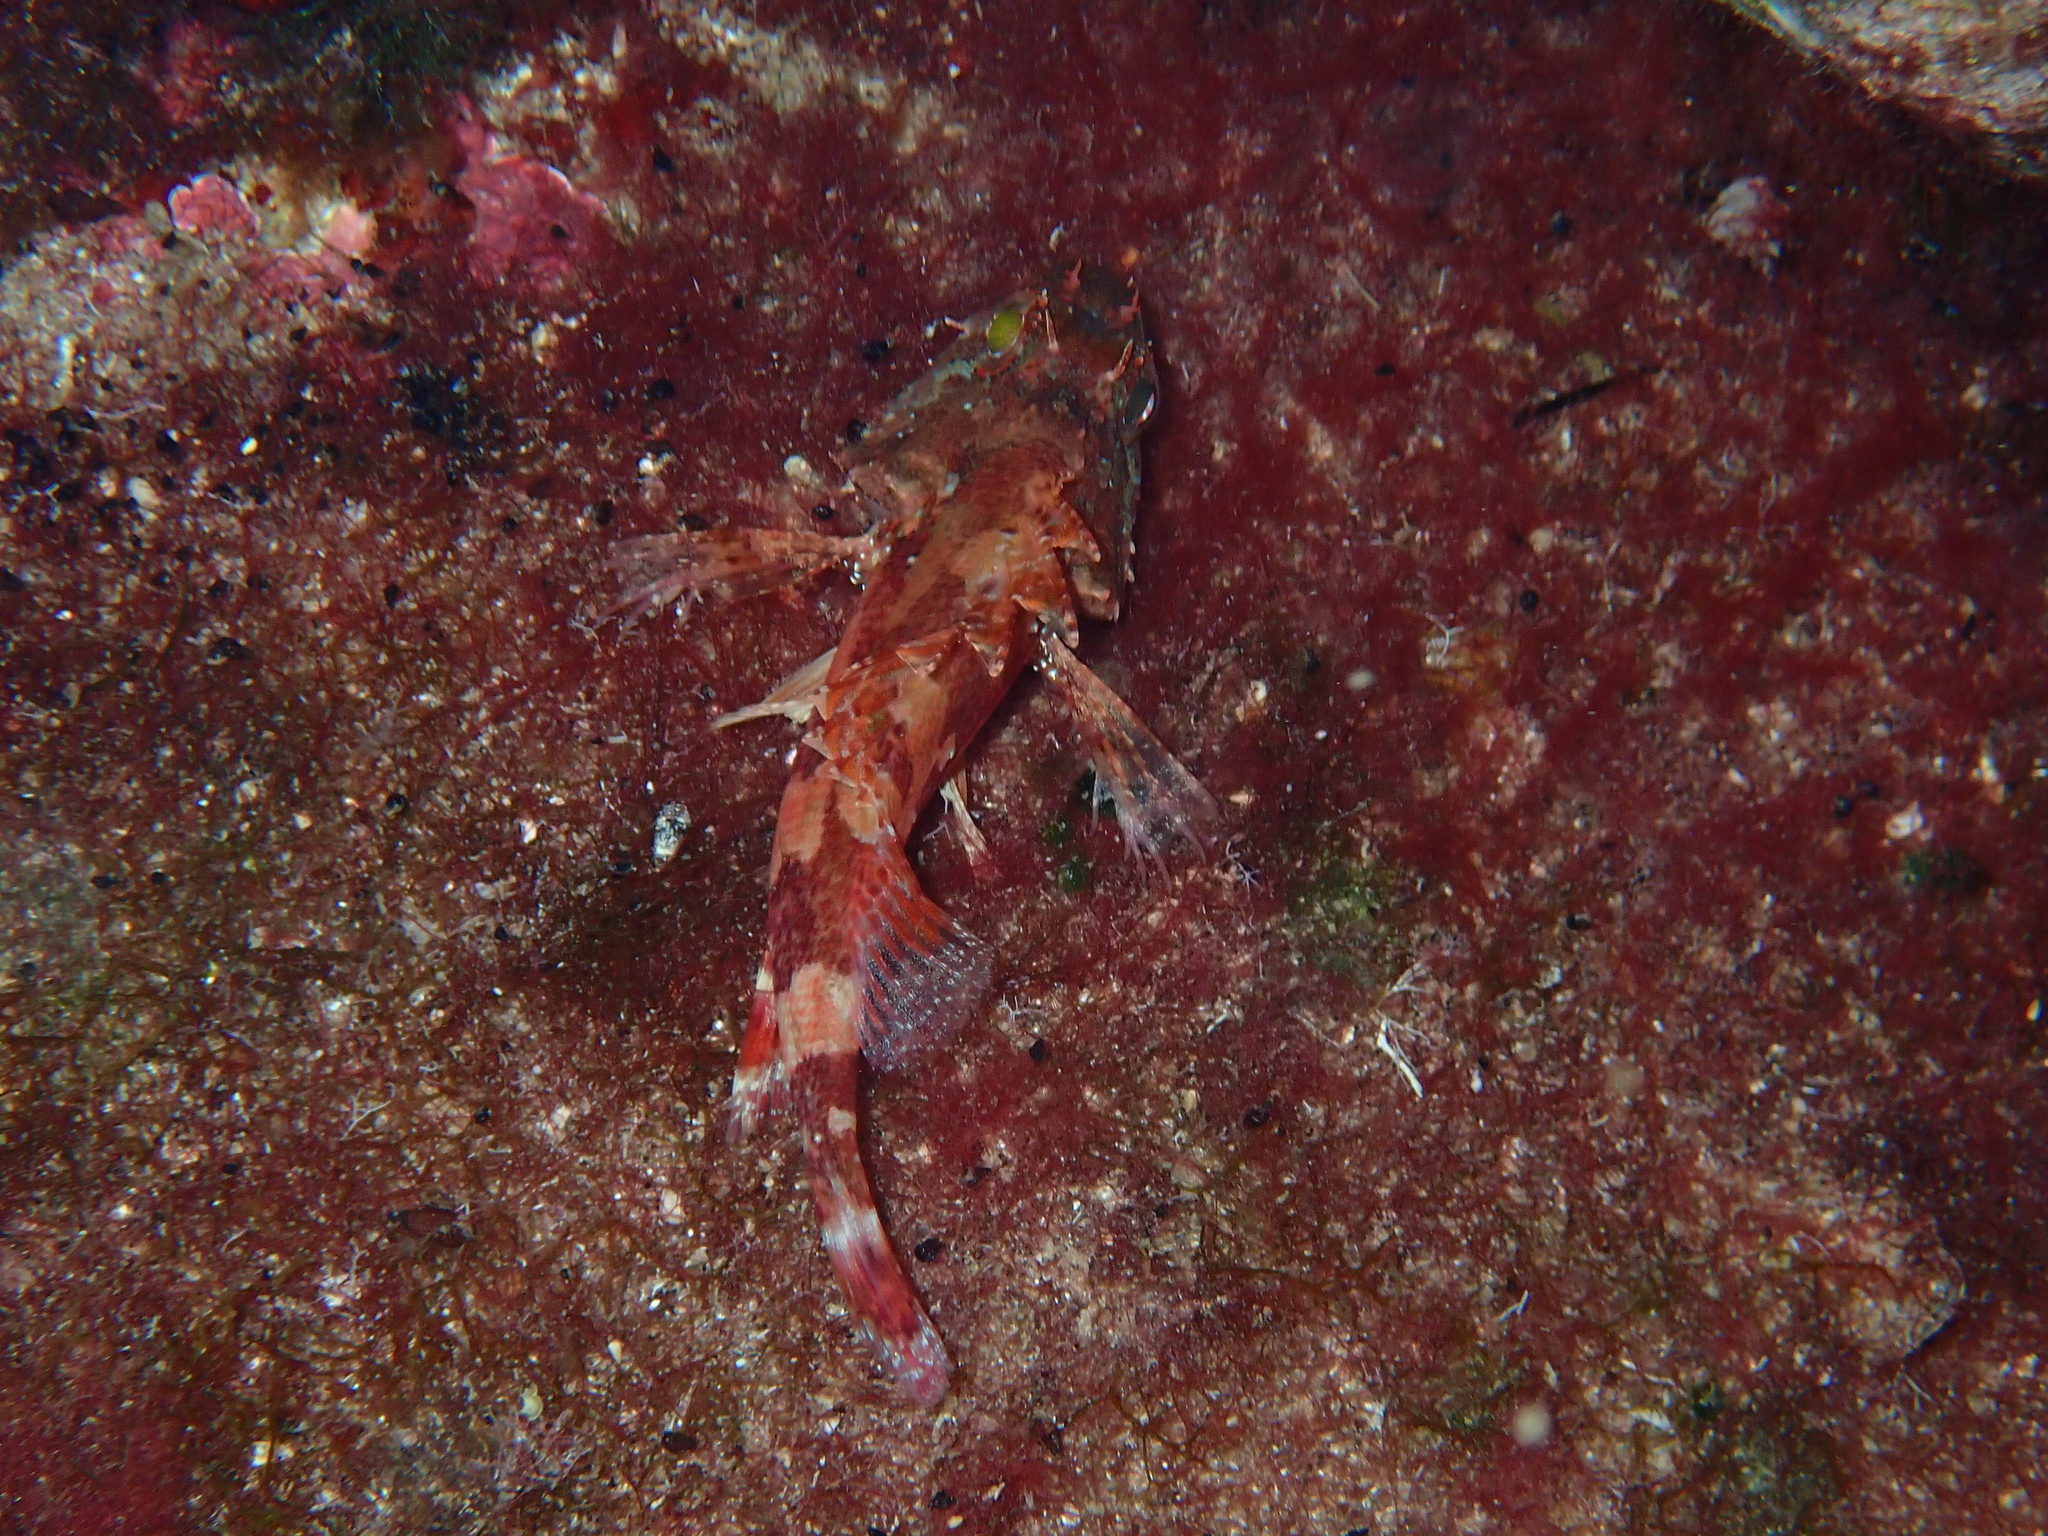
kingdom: Animalia
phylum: Chordata
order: Scorpaeniformes
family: Scorpaenidae
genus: Scorpaena
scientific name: Scorpaena maderensis
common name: Madeira rockfish
